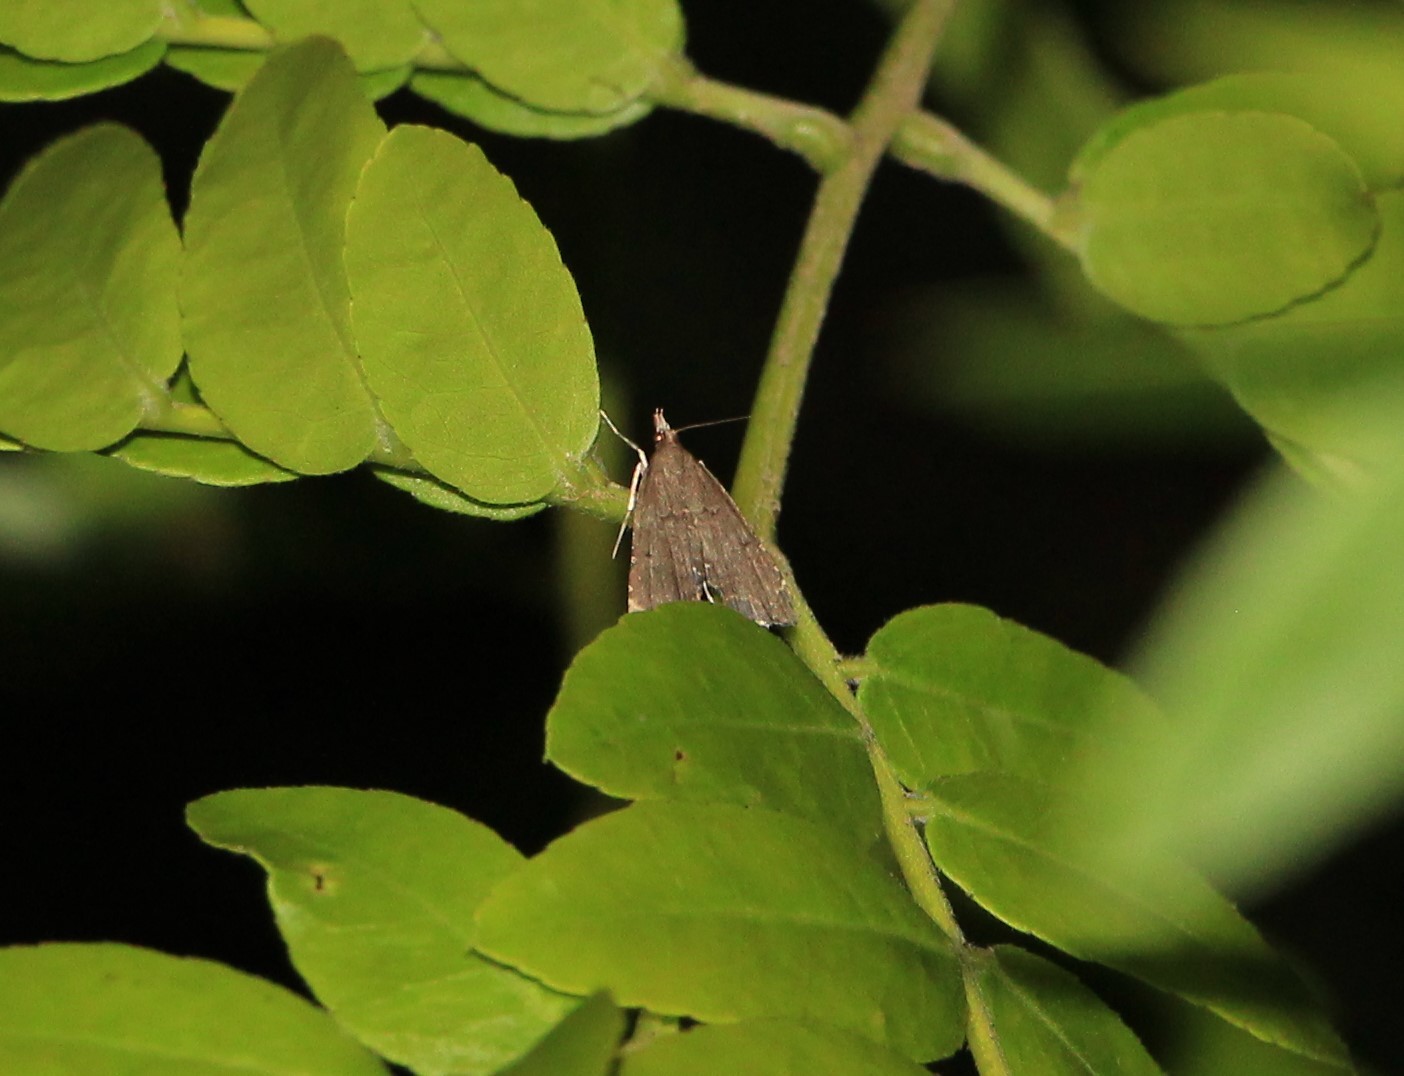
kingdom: Animalia
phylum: Arthropoda
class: Insecta
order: Lepidoptera
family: Crambidae
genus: Diplopseustis
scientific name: Diplopseustis perieresalis
